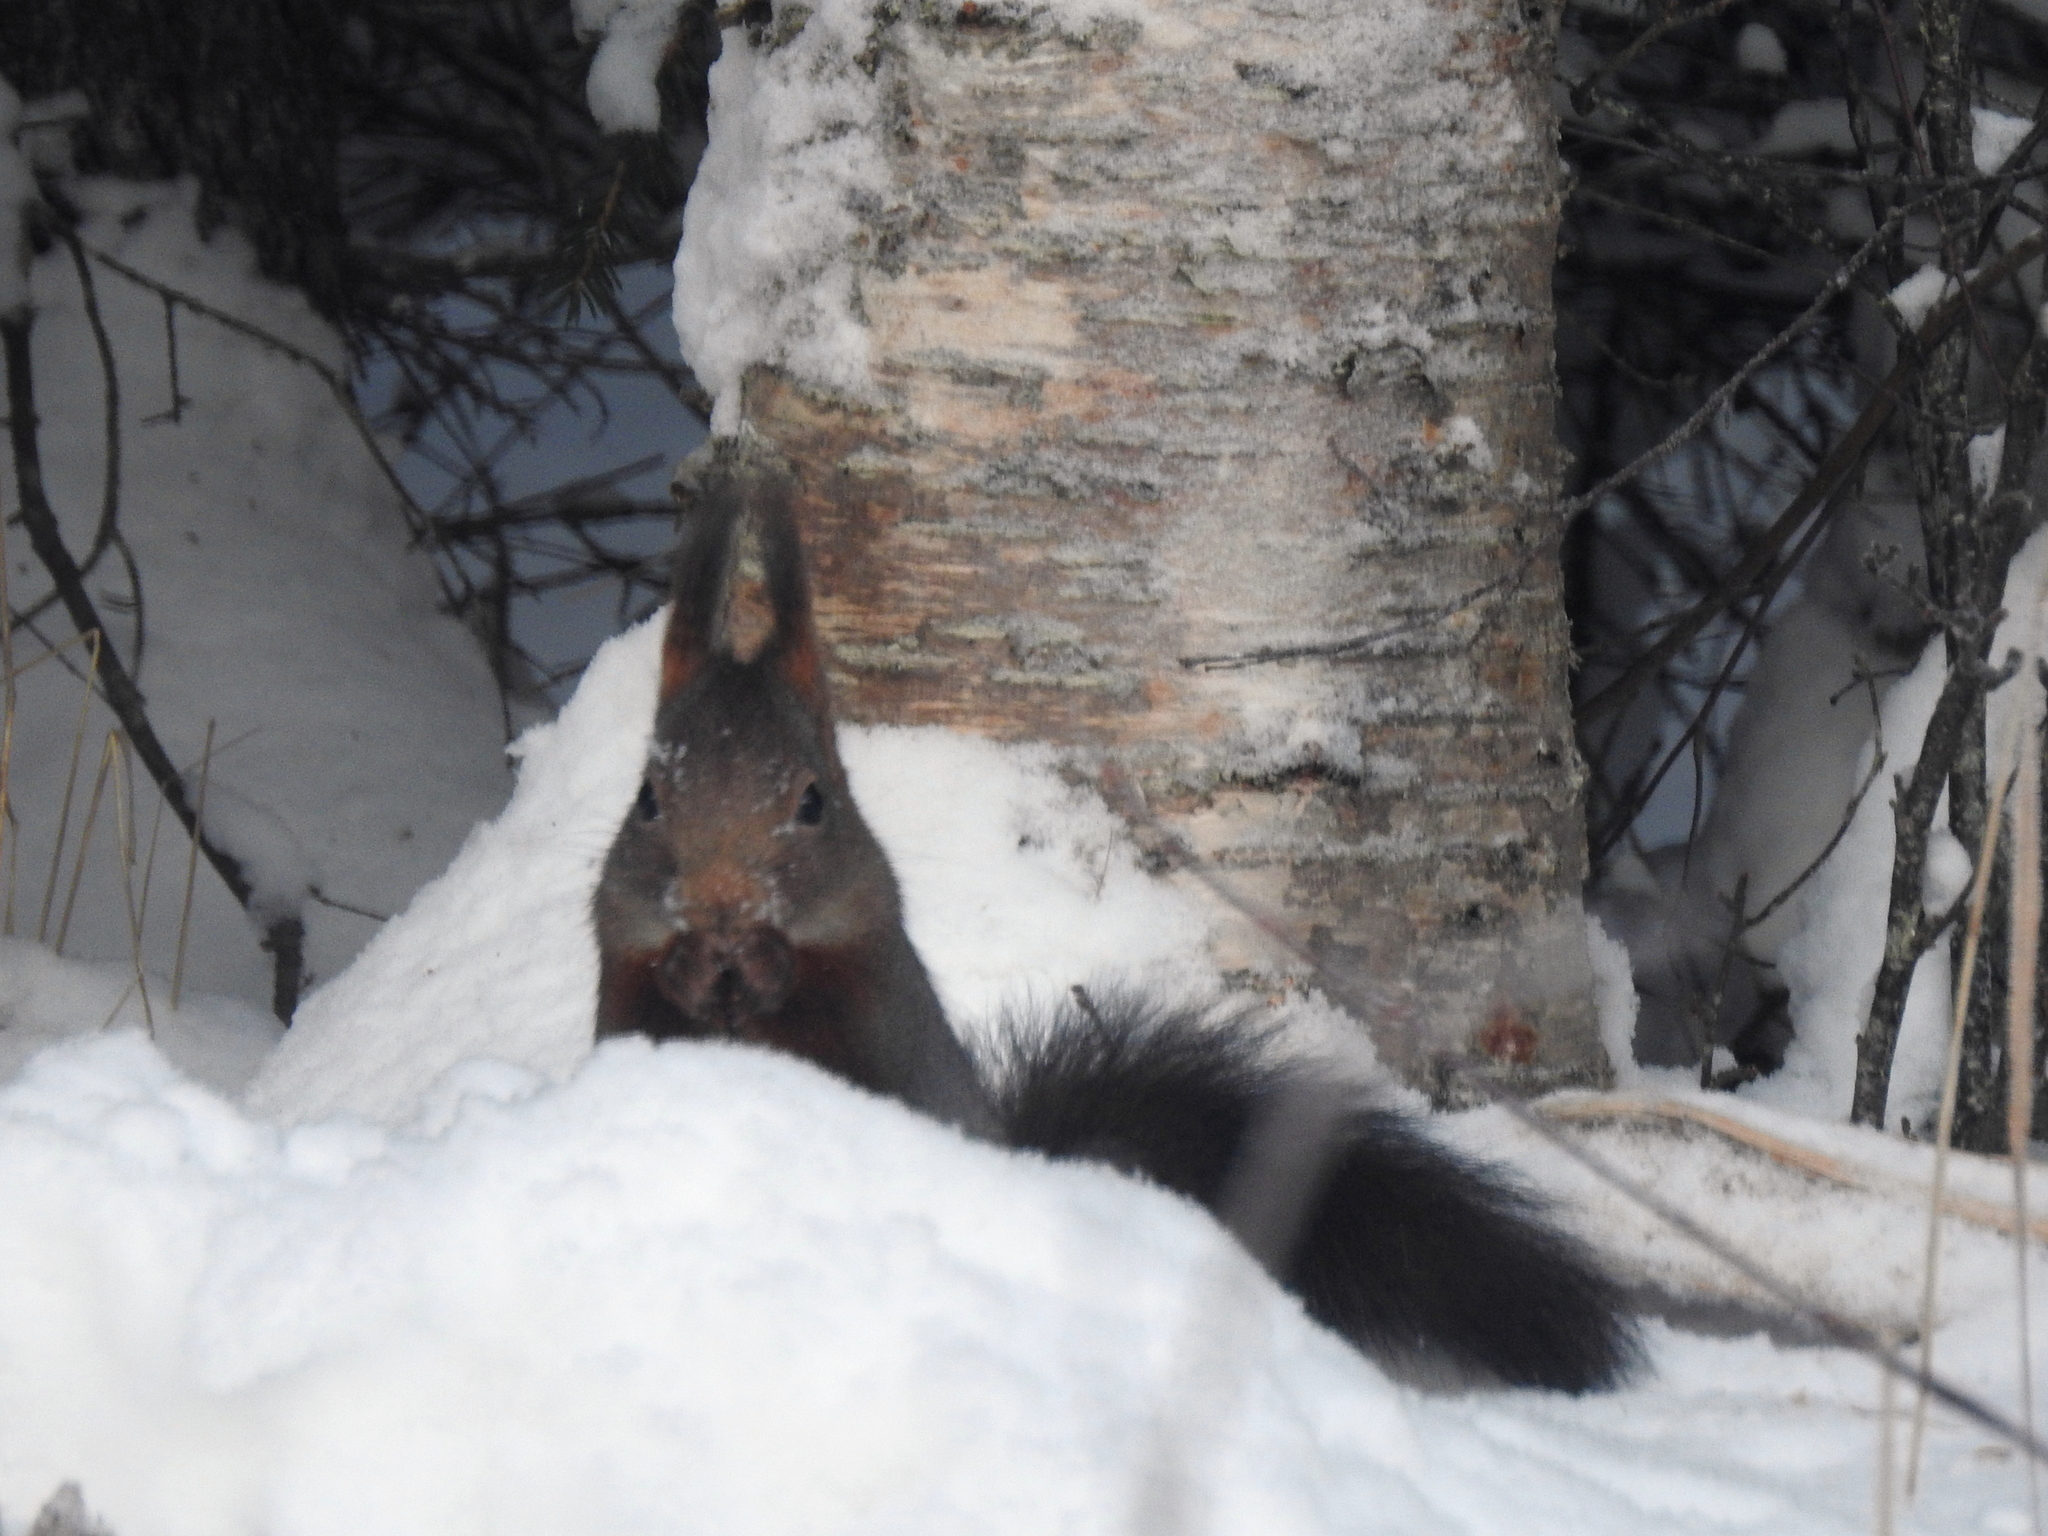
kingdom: Animalia
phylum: Chordata
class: Mammalia
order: Rodentia
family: Sciuridae
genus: Sciurus
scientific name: Sciurus vulgaris
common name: Eurasian red squirrel
